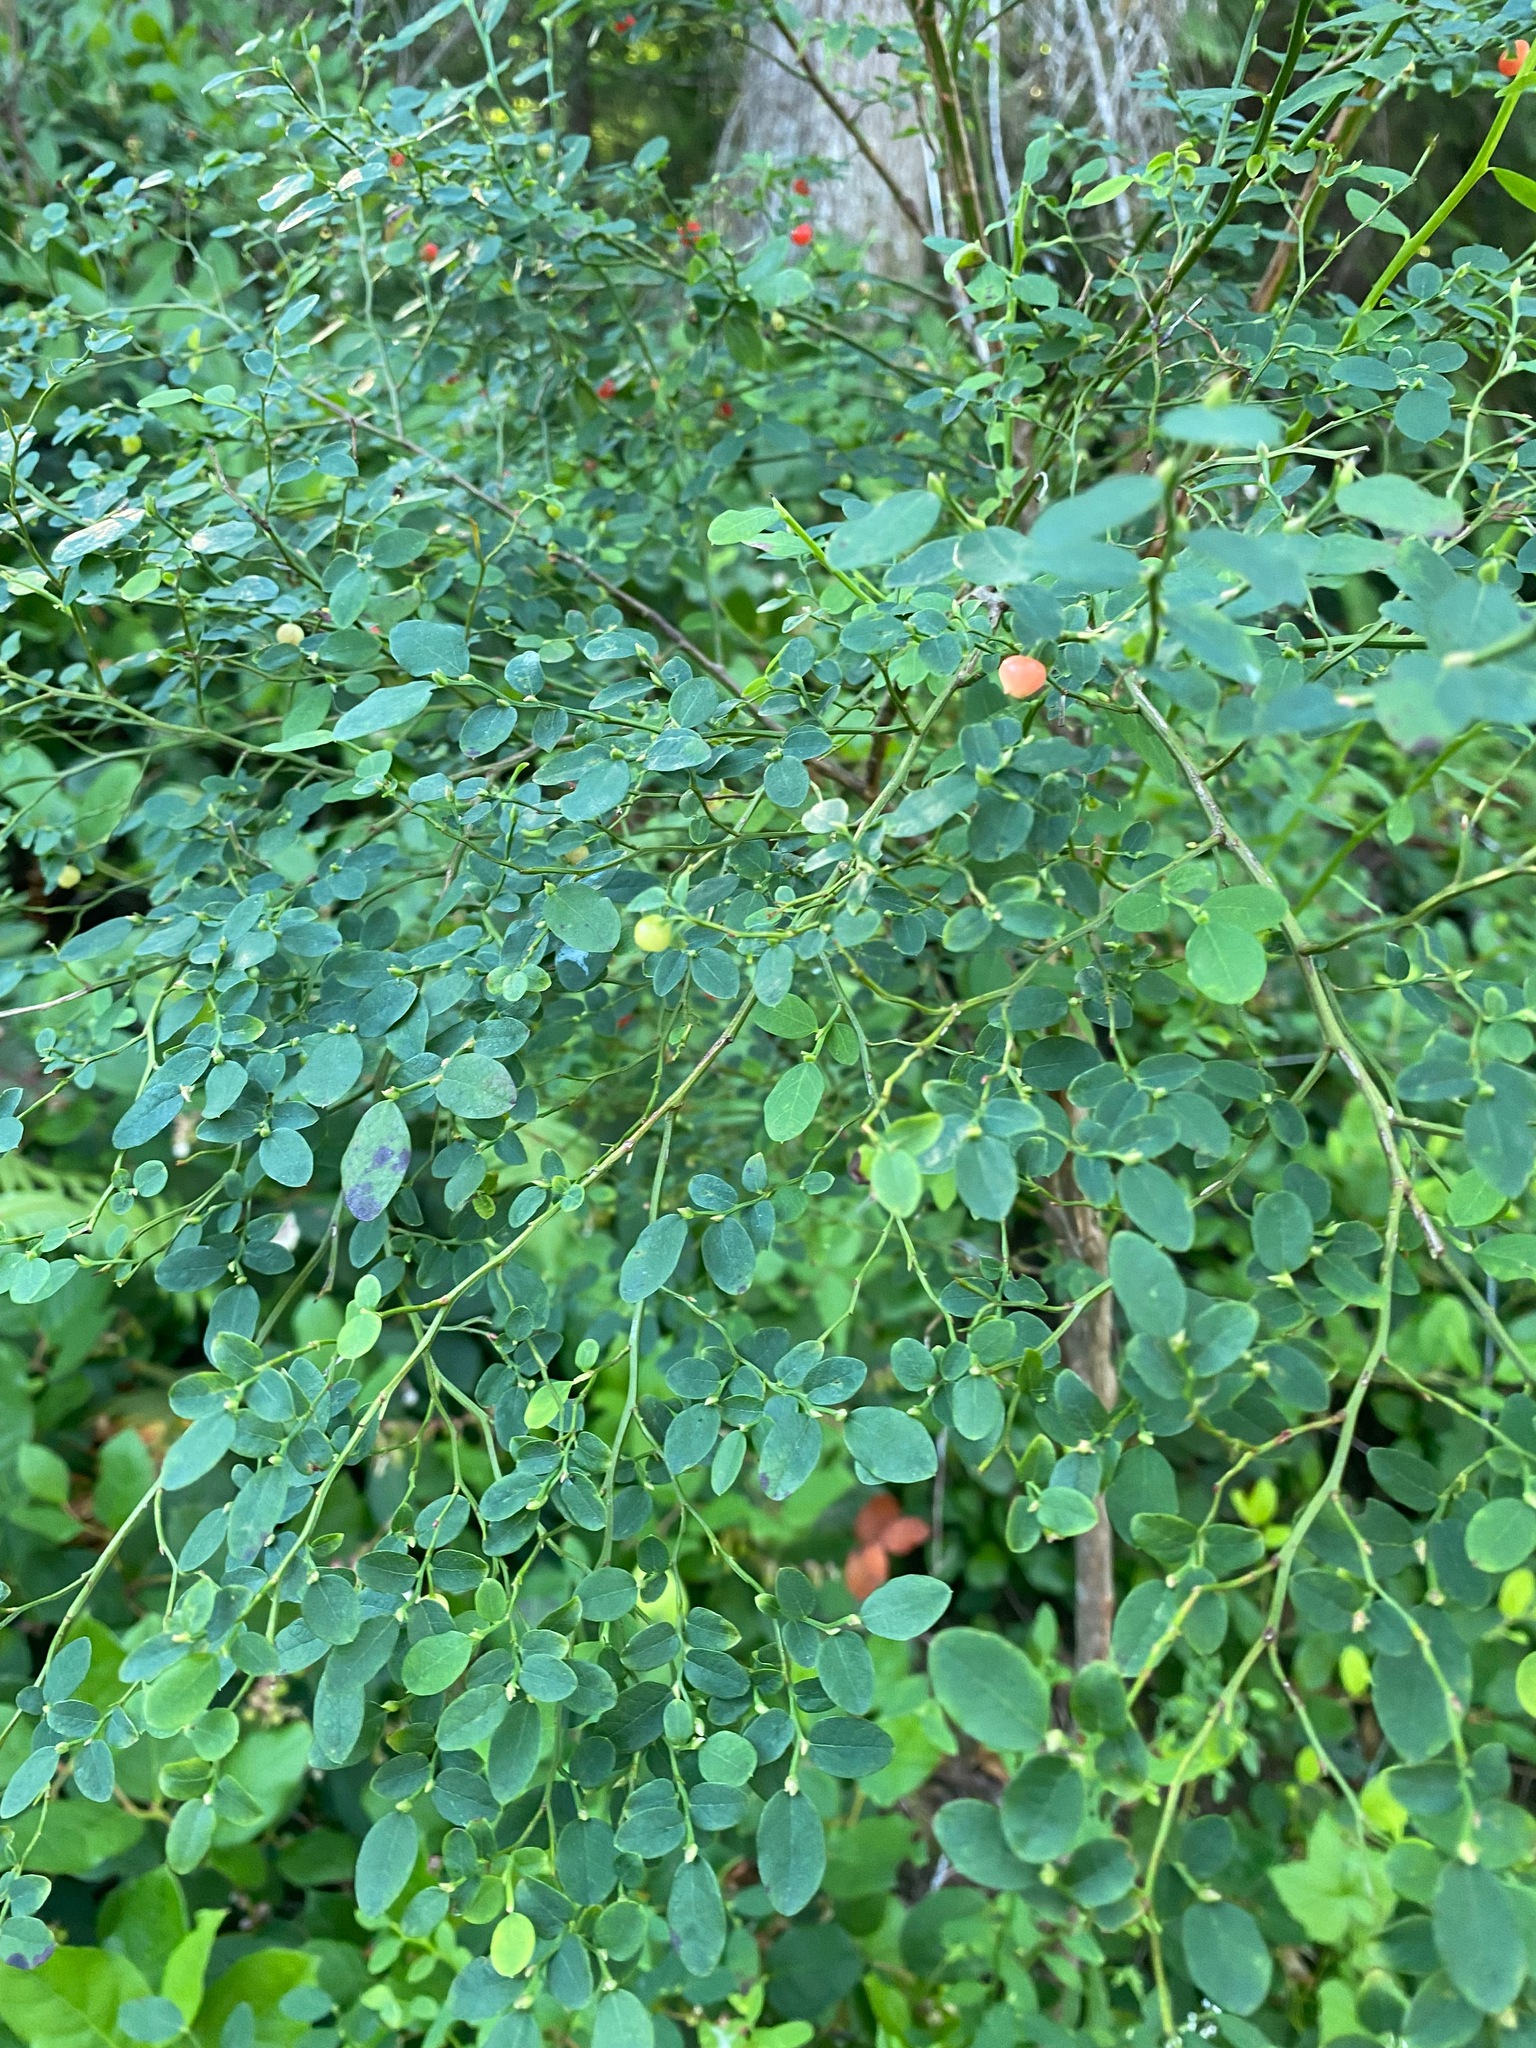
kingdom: Plantae
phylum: Tracheophyta
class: Magnoliopsida
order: Ericales
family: Ericaceae
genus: Vaccinium
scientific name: Vaccinium parvifolium
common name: Red-huckleberry
